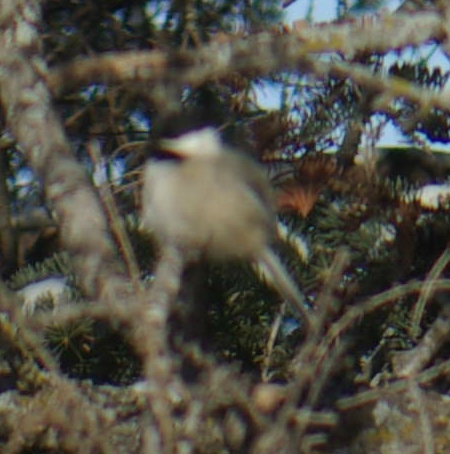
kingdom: Animalia
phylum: Chordata
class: Aves
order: Passeriformes
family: Paridae
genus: Poecile
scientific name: Poecile atricapillus
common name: Black-capped chickadee
